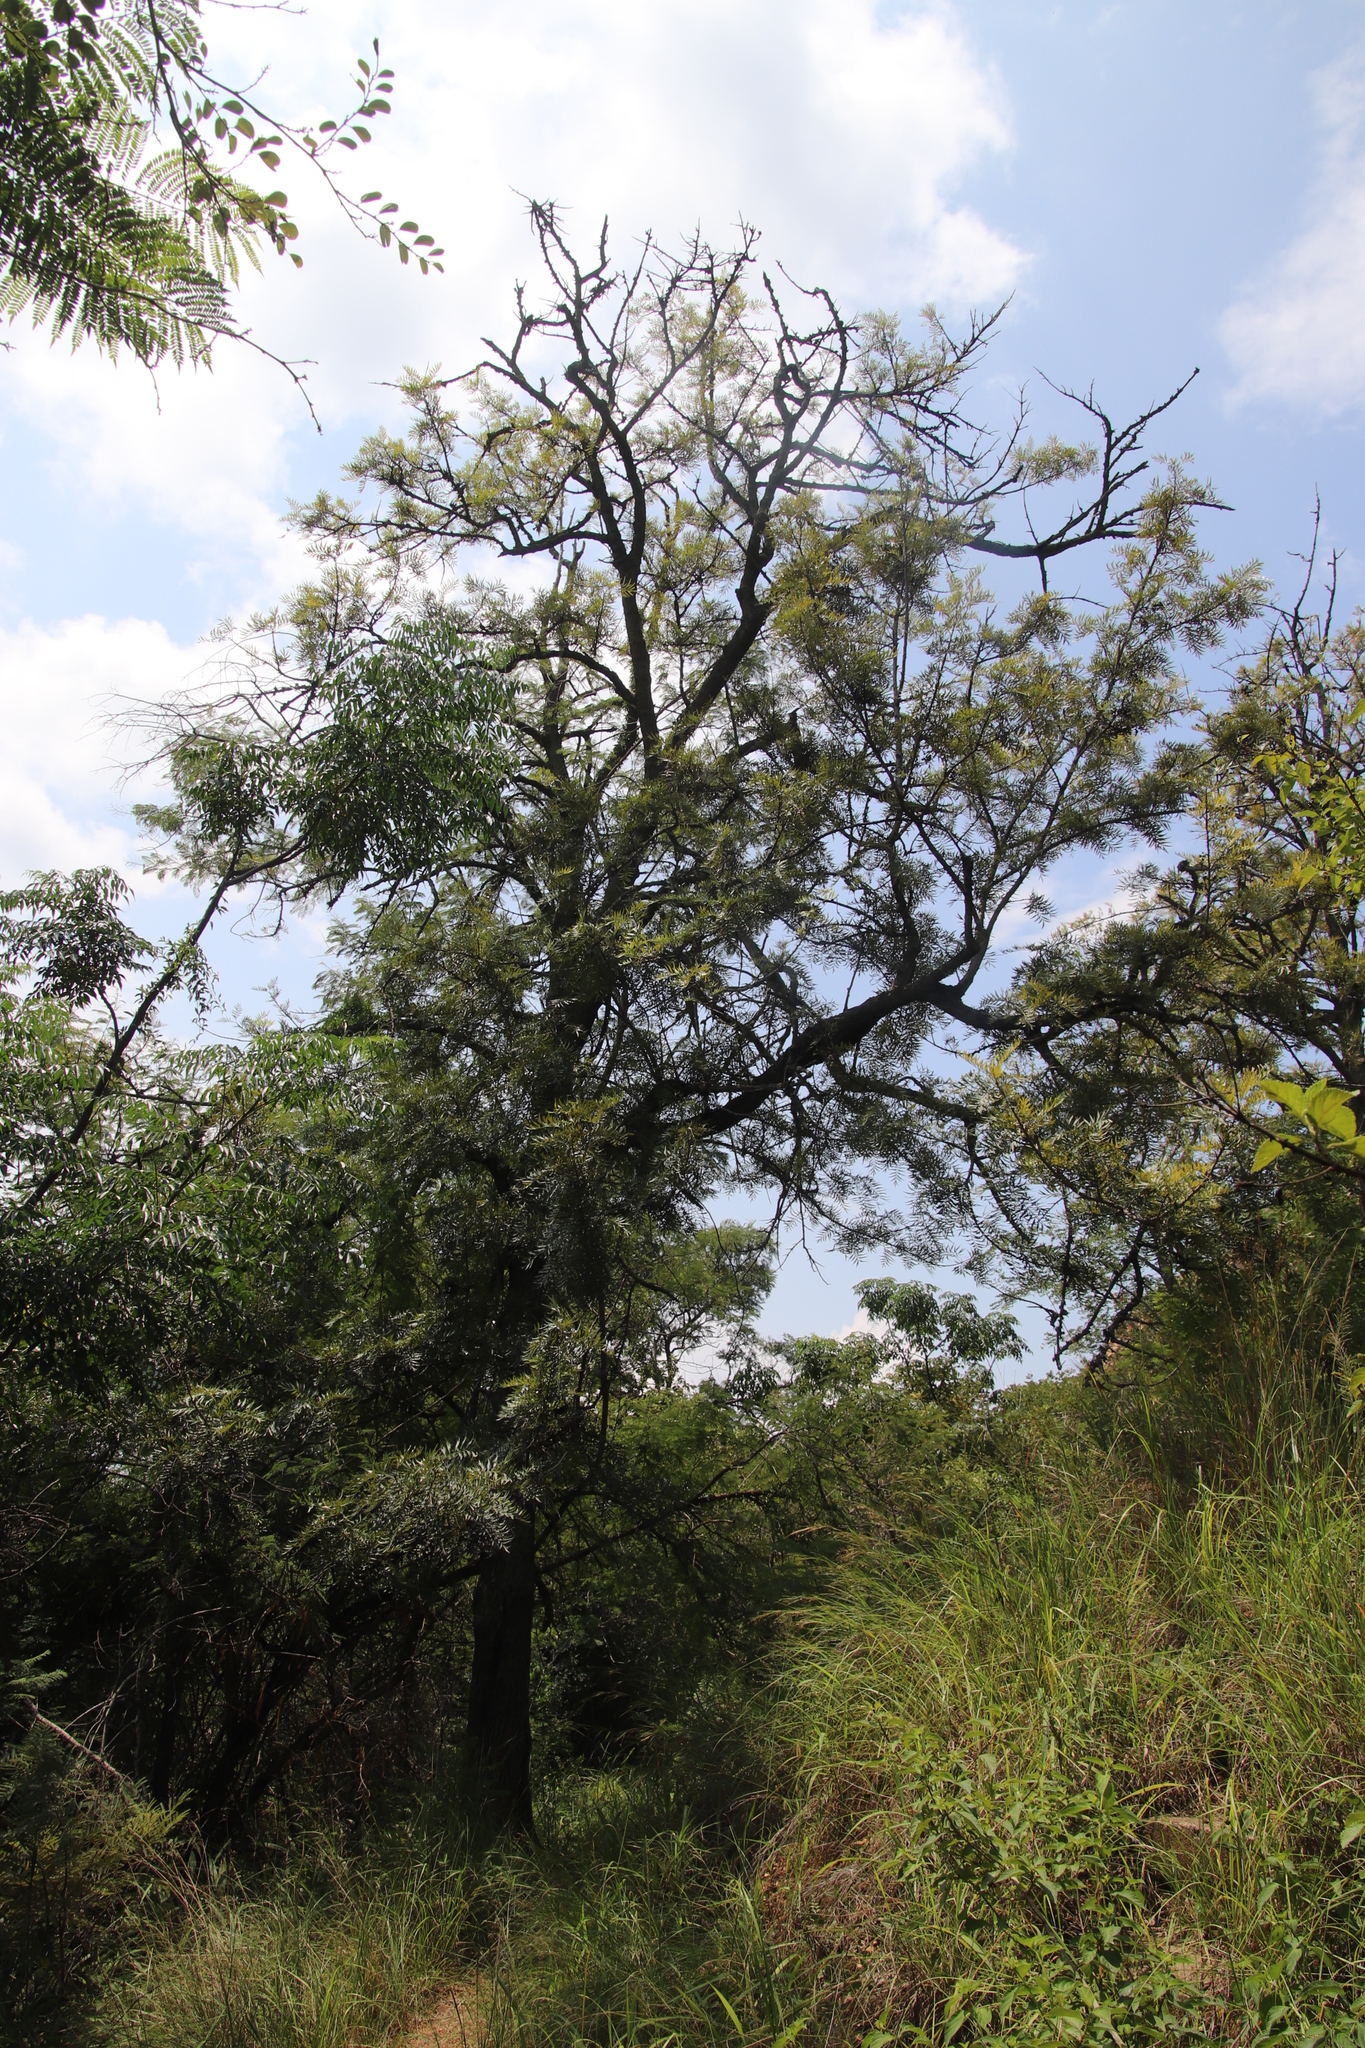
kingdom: Plantae
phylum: Tracheophyta
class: Magnoliopsida
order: Proteales
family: Proteaceae
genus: Grevillea
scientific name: Grevillea robusta
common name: Silkoak
